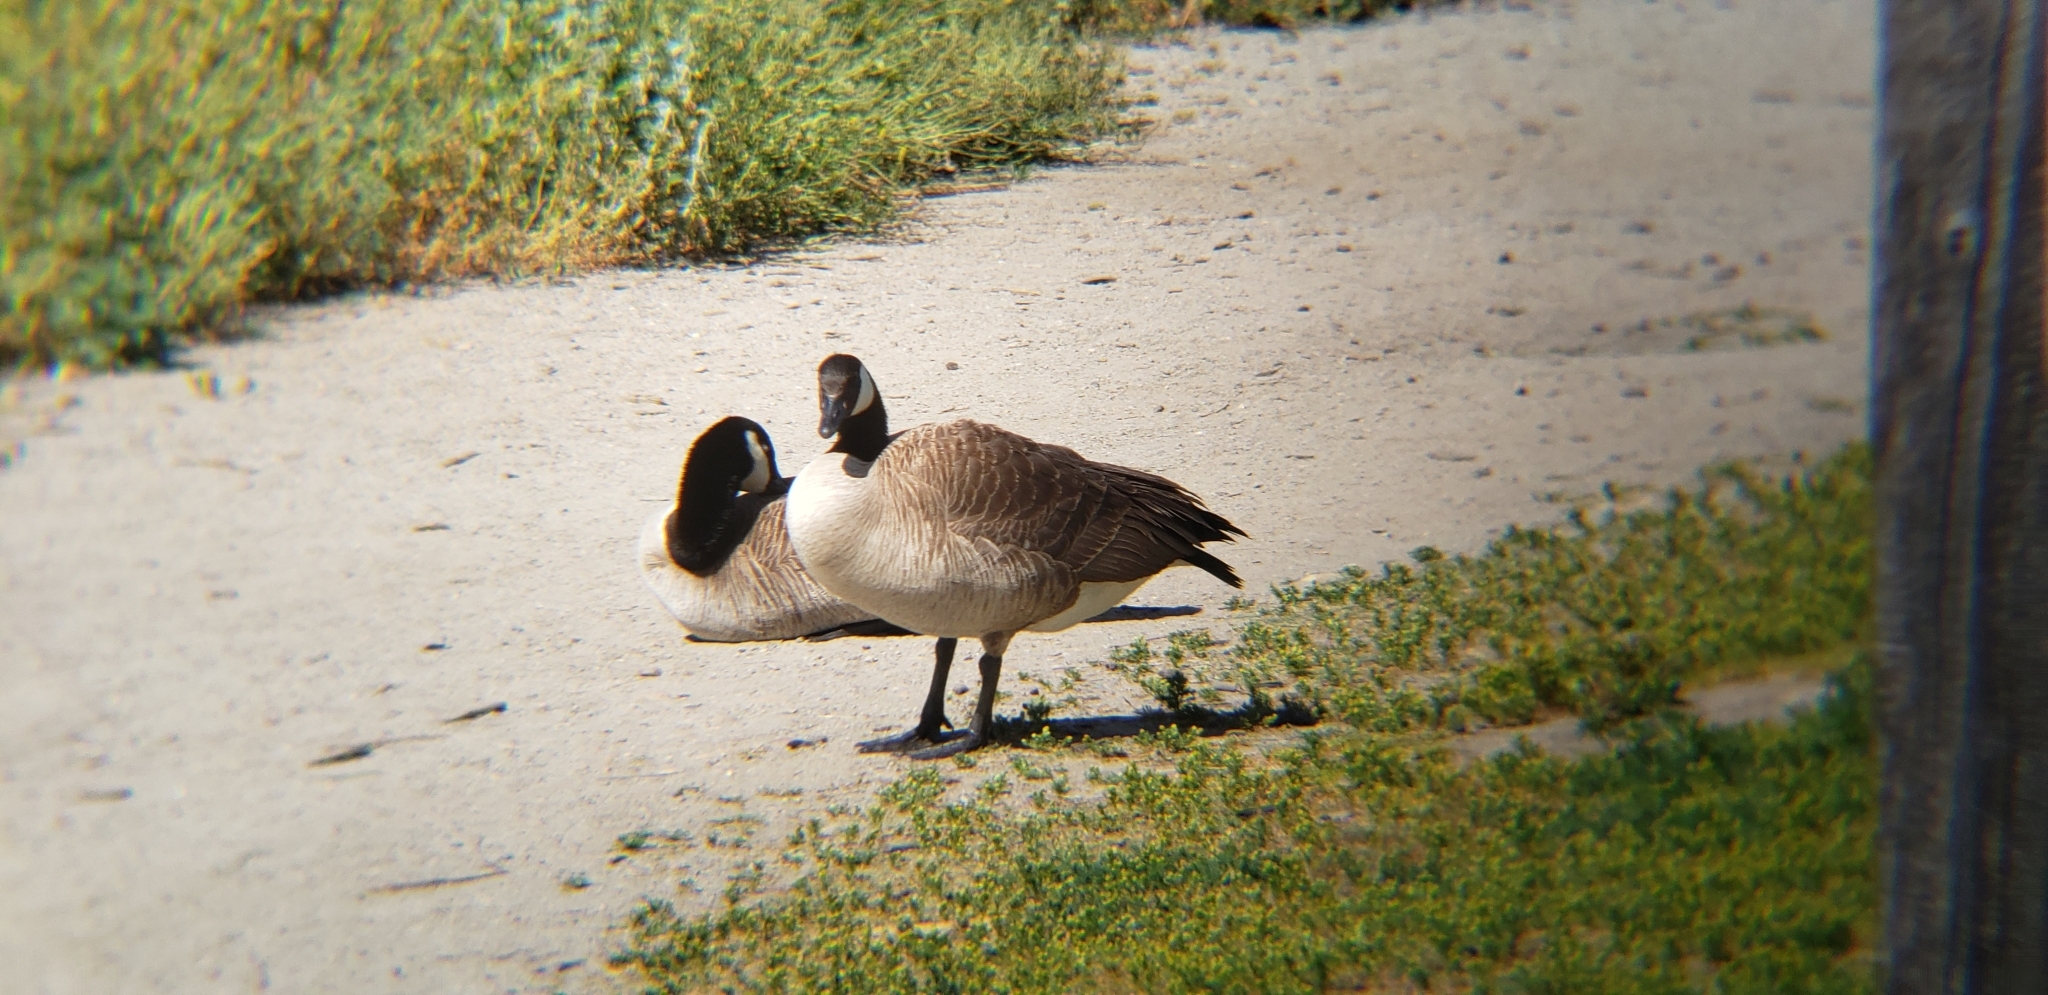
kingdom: Animalia
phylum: Chordata
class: Aves
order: Anseriformes
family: Anatidae
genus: Branta
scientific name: Branta canadensis
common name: Canada goose
